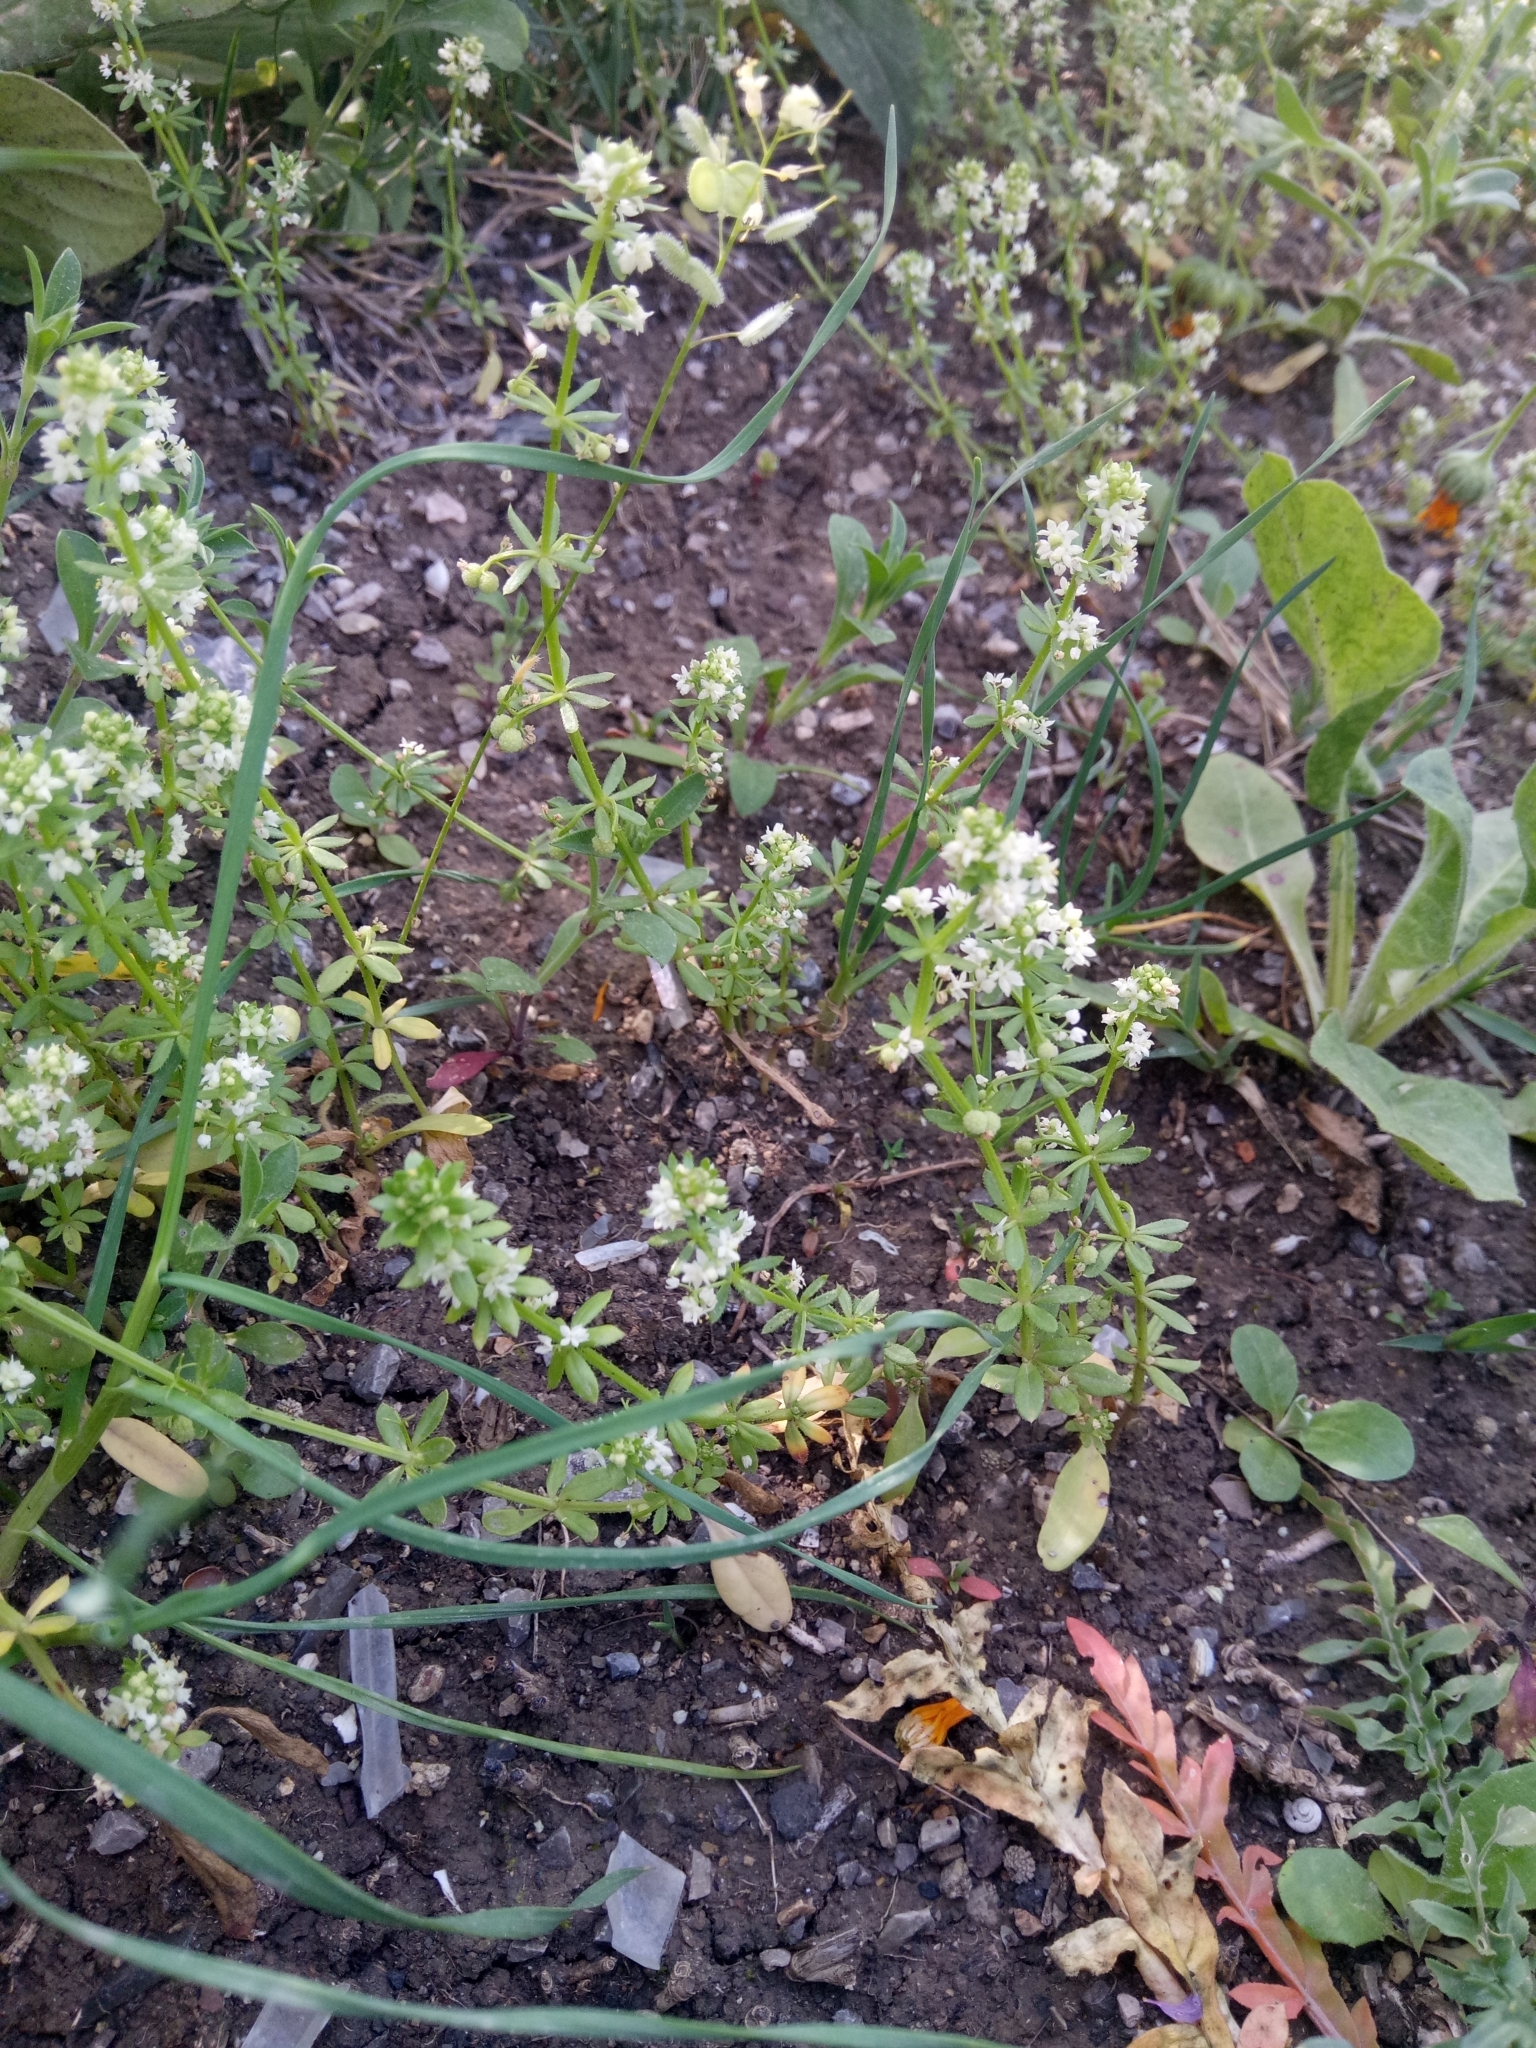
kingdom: Plantae
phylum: Tracheophyta
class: Magnoliopsida
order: Gentianales
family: Rubiaceae
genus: Galium
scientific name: Galium verrucosum
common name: Warty bedstraw
